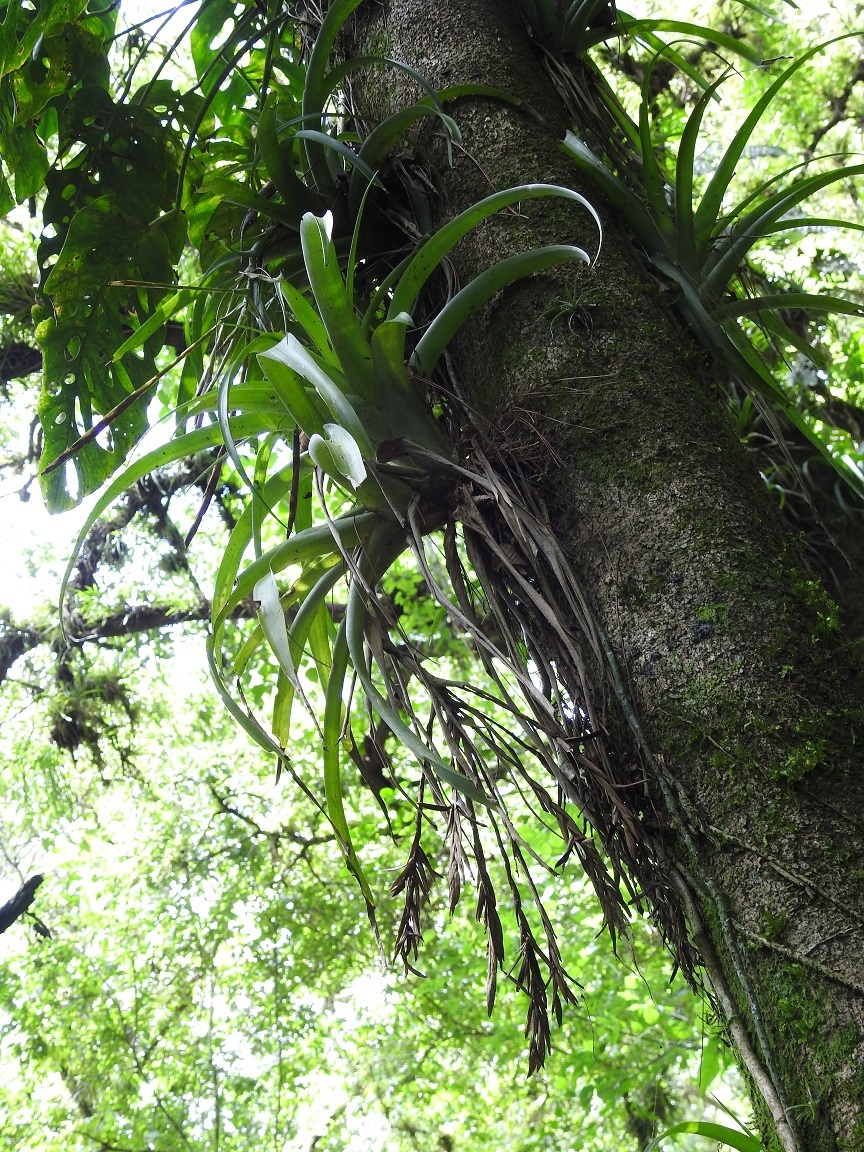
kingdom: Plantae
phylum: Tracheophyta
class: Liliopsida
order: Poales
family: Bromeliaceae
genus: Tillandsia
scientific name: Tillandsia flabellata
